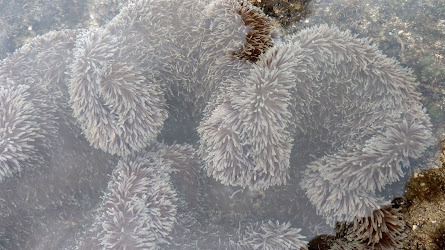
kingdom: Animalia
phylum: Cnidaria
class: Anthozoa
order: Actiniaria
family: Stichodactylidae
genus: Stichodactyla
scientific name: Stichodactyla gigantea
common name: Giant anemone
